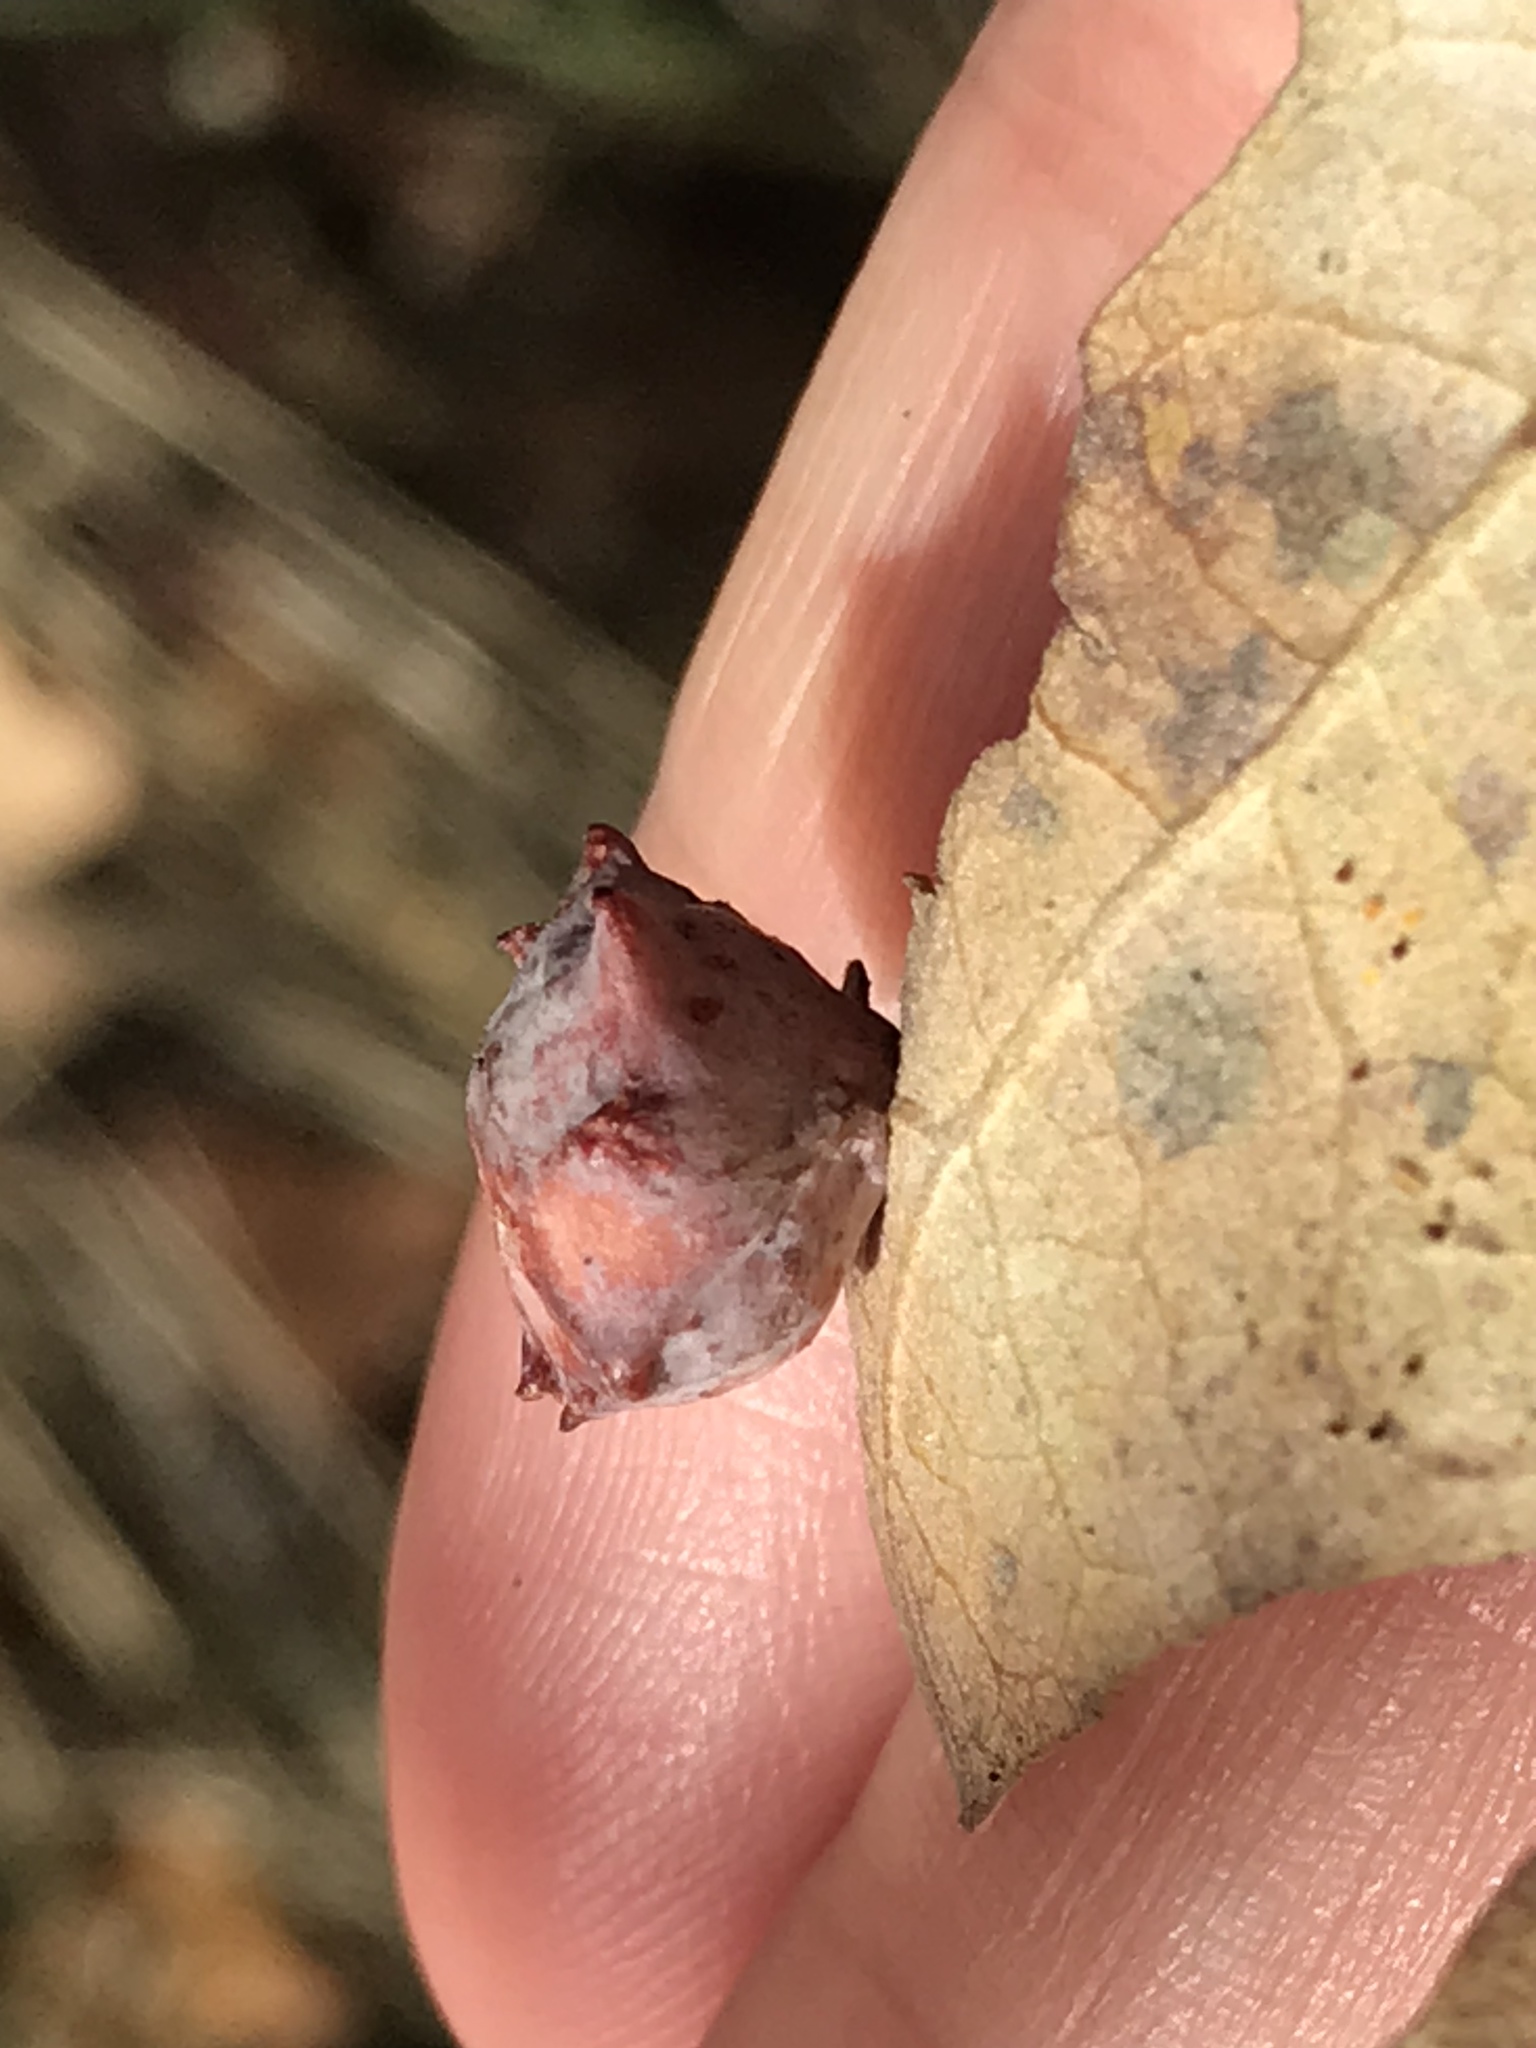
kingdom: Animalia
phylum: Arthropoda
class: Insecta
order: Hymenoptera
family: Cynipidae
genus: Cynips
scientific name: Cynips douglasi
